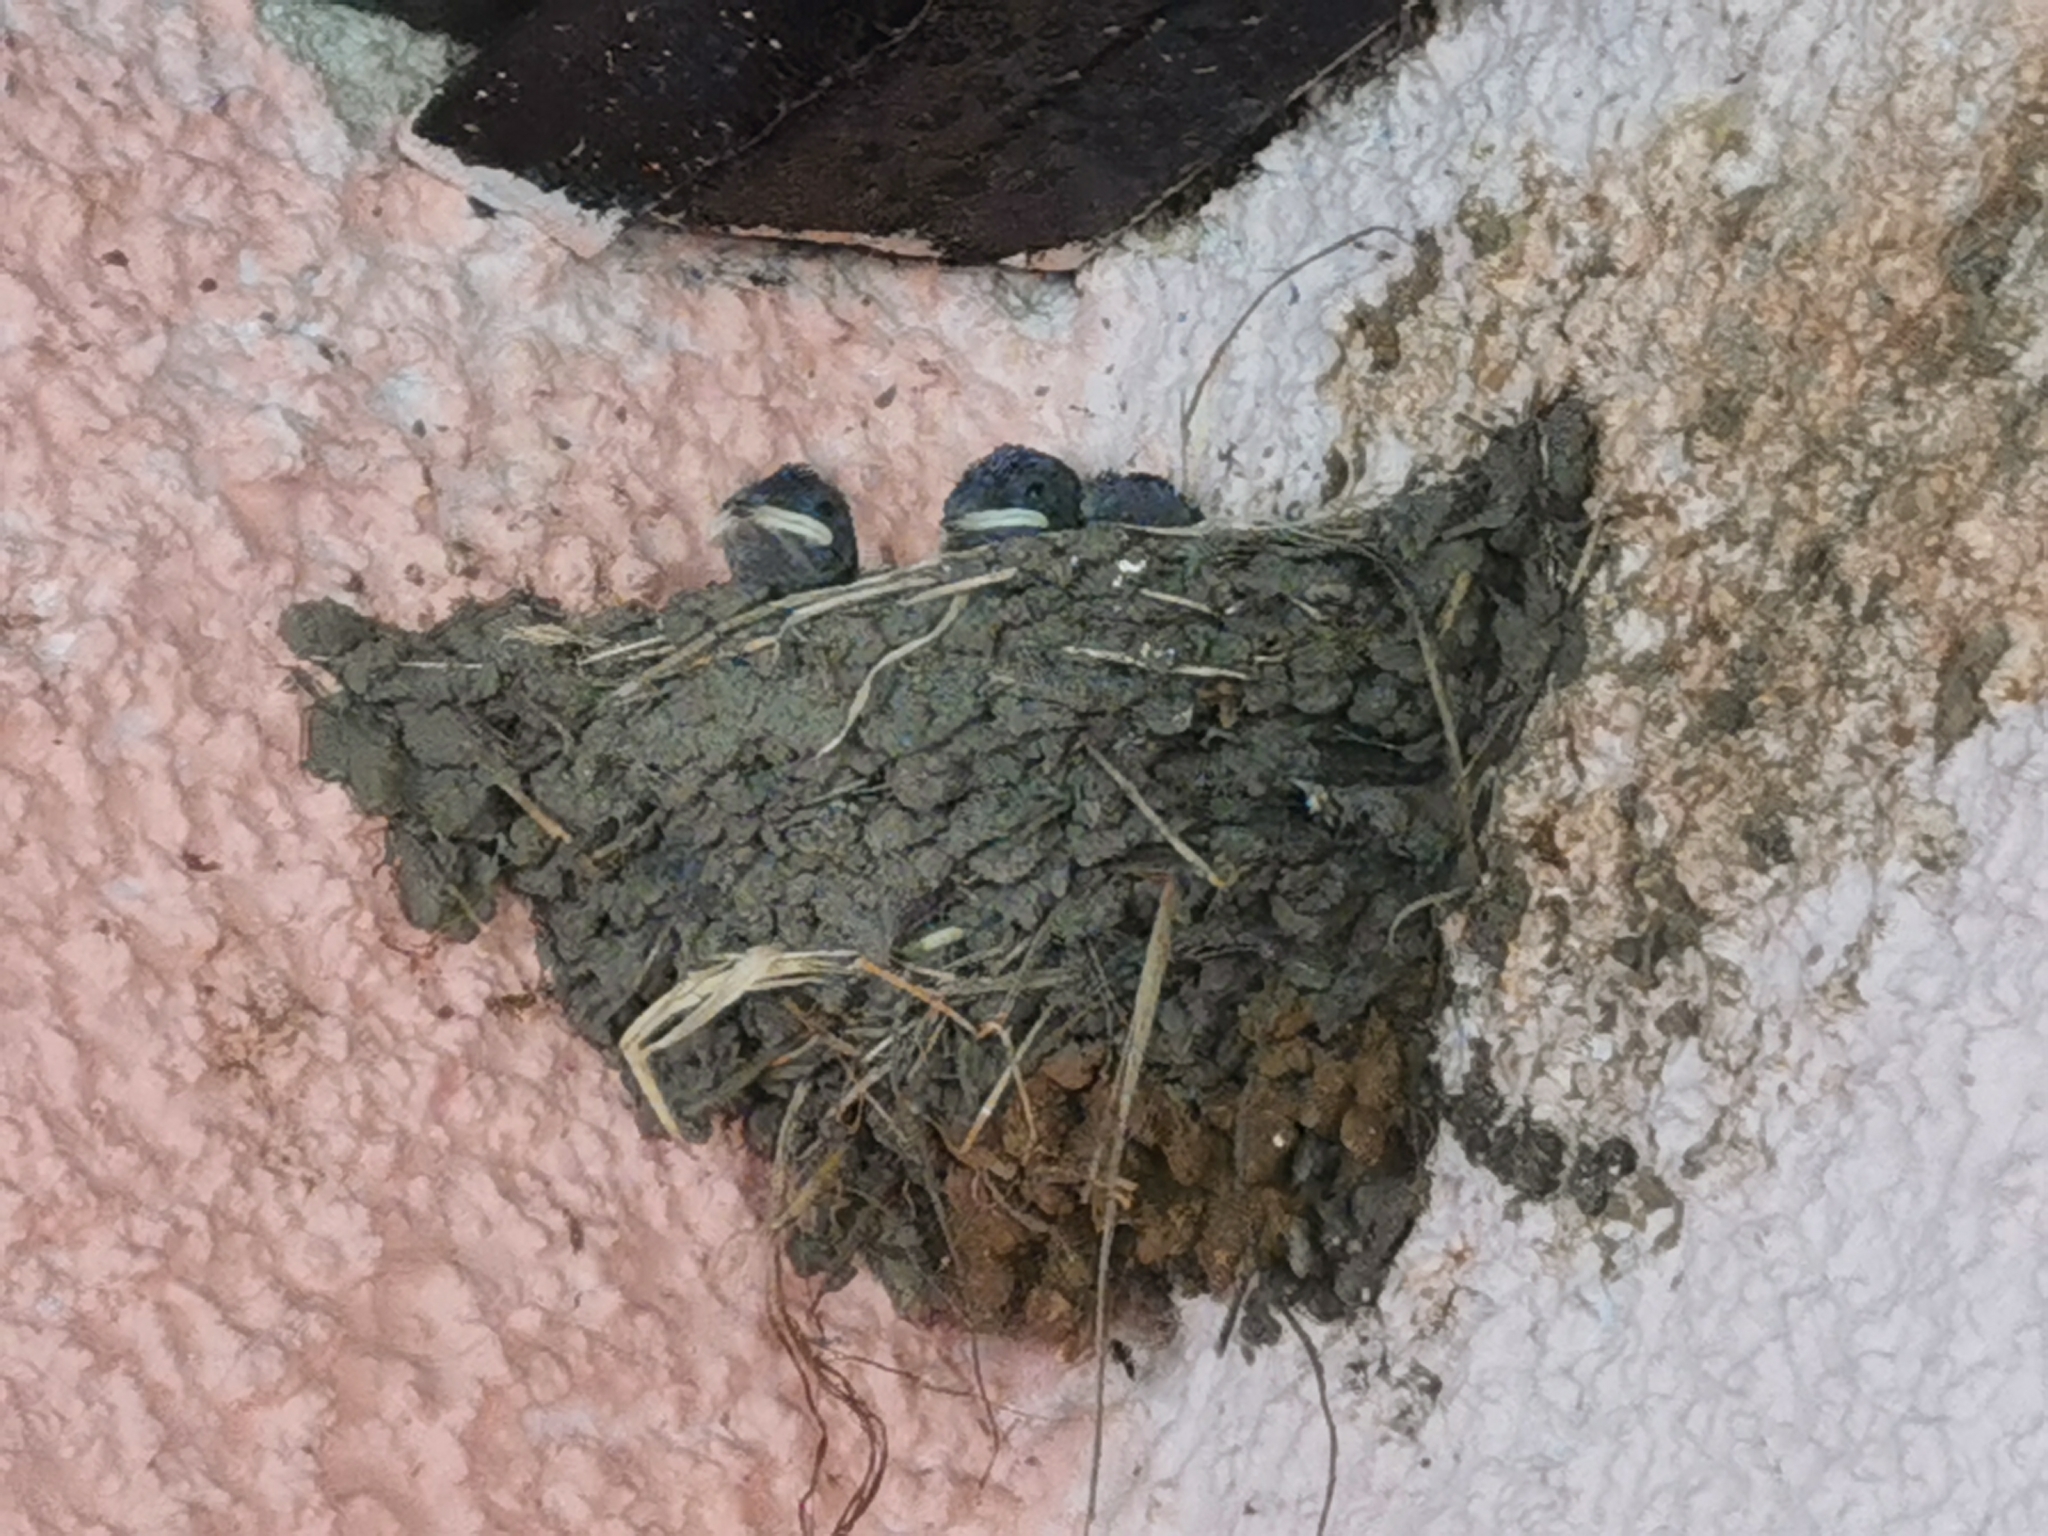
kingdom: Animalia
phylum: Chordata
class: Aves
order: Passeriformes
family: Hirundinidae
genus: Hirundo
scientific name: Hirundo rustica
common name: Barn swallow
